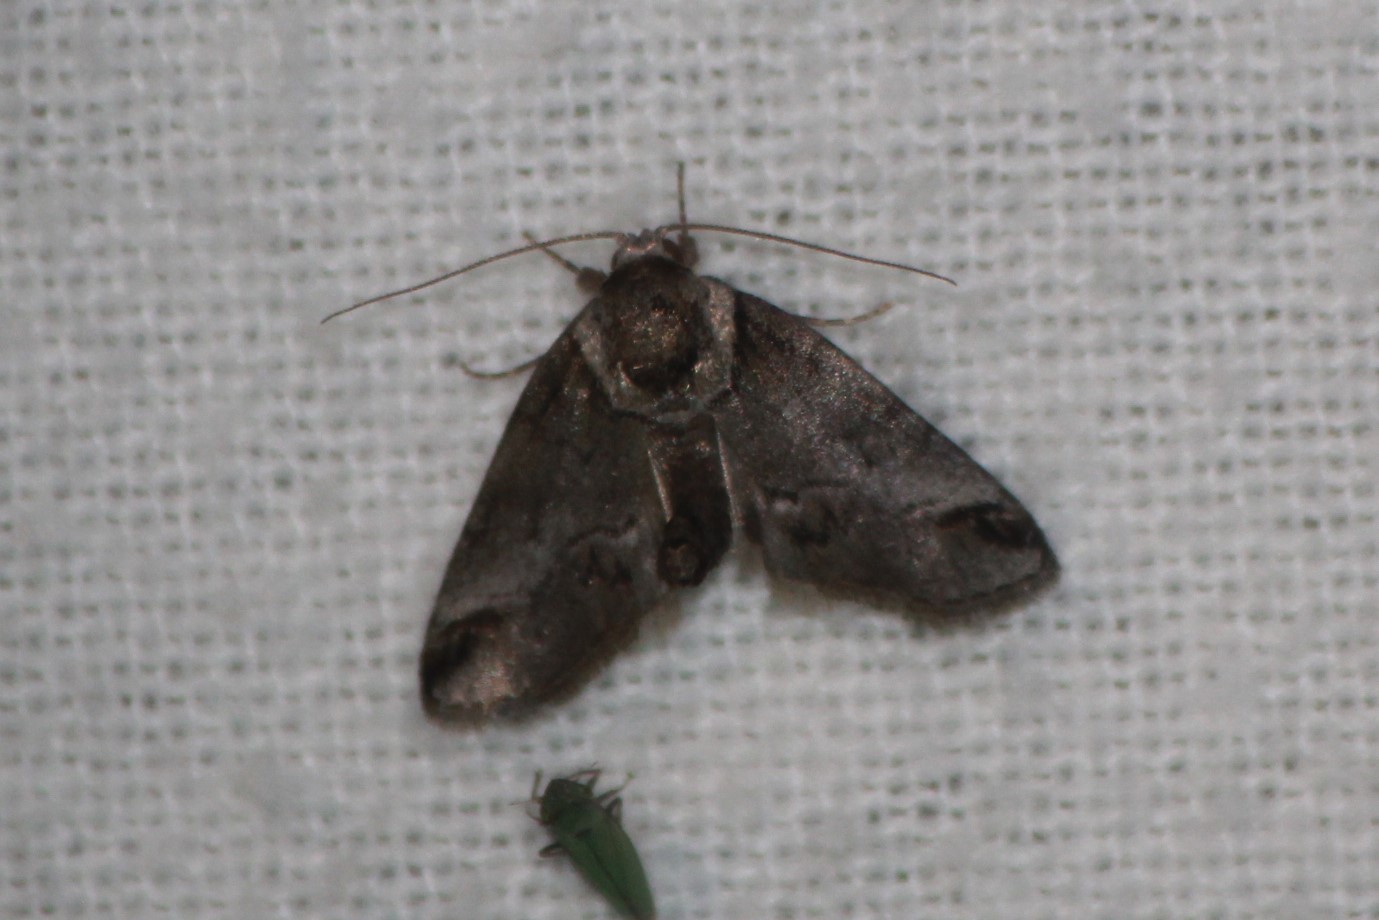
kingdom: Animalia
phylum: Arthropoda
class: Insecta
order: Lepidoptera
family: Nolidae
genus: Baileya
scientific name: Baileya australis
